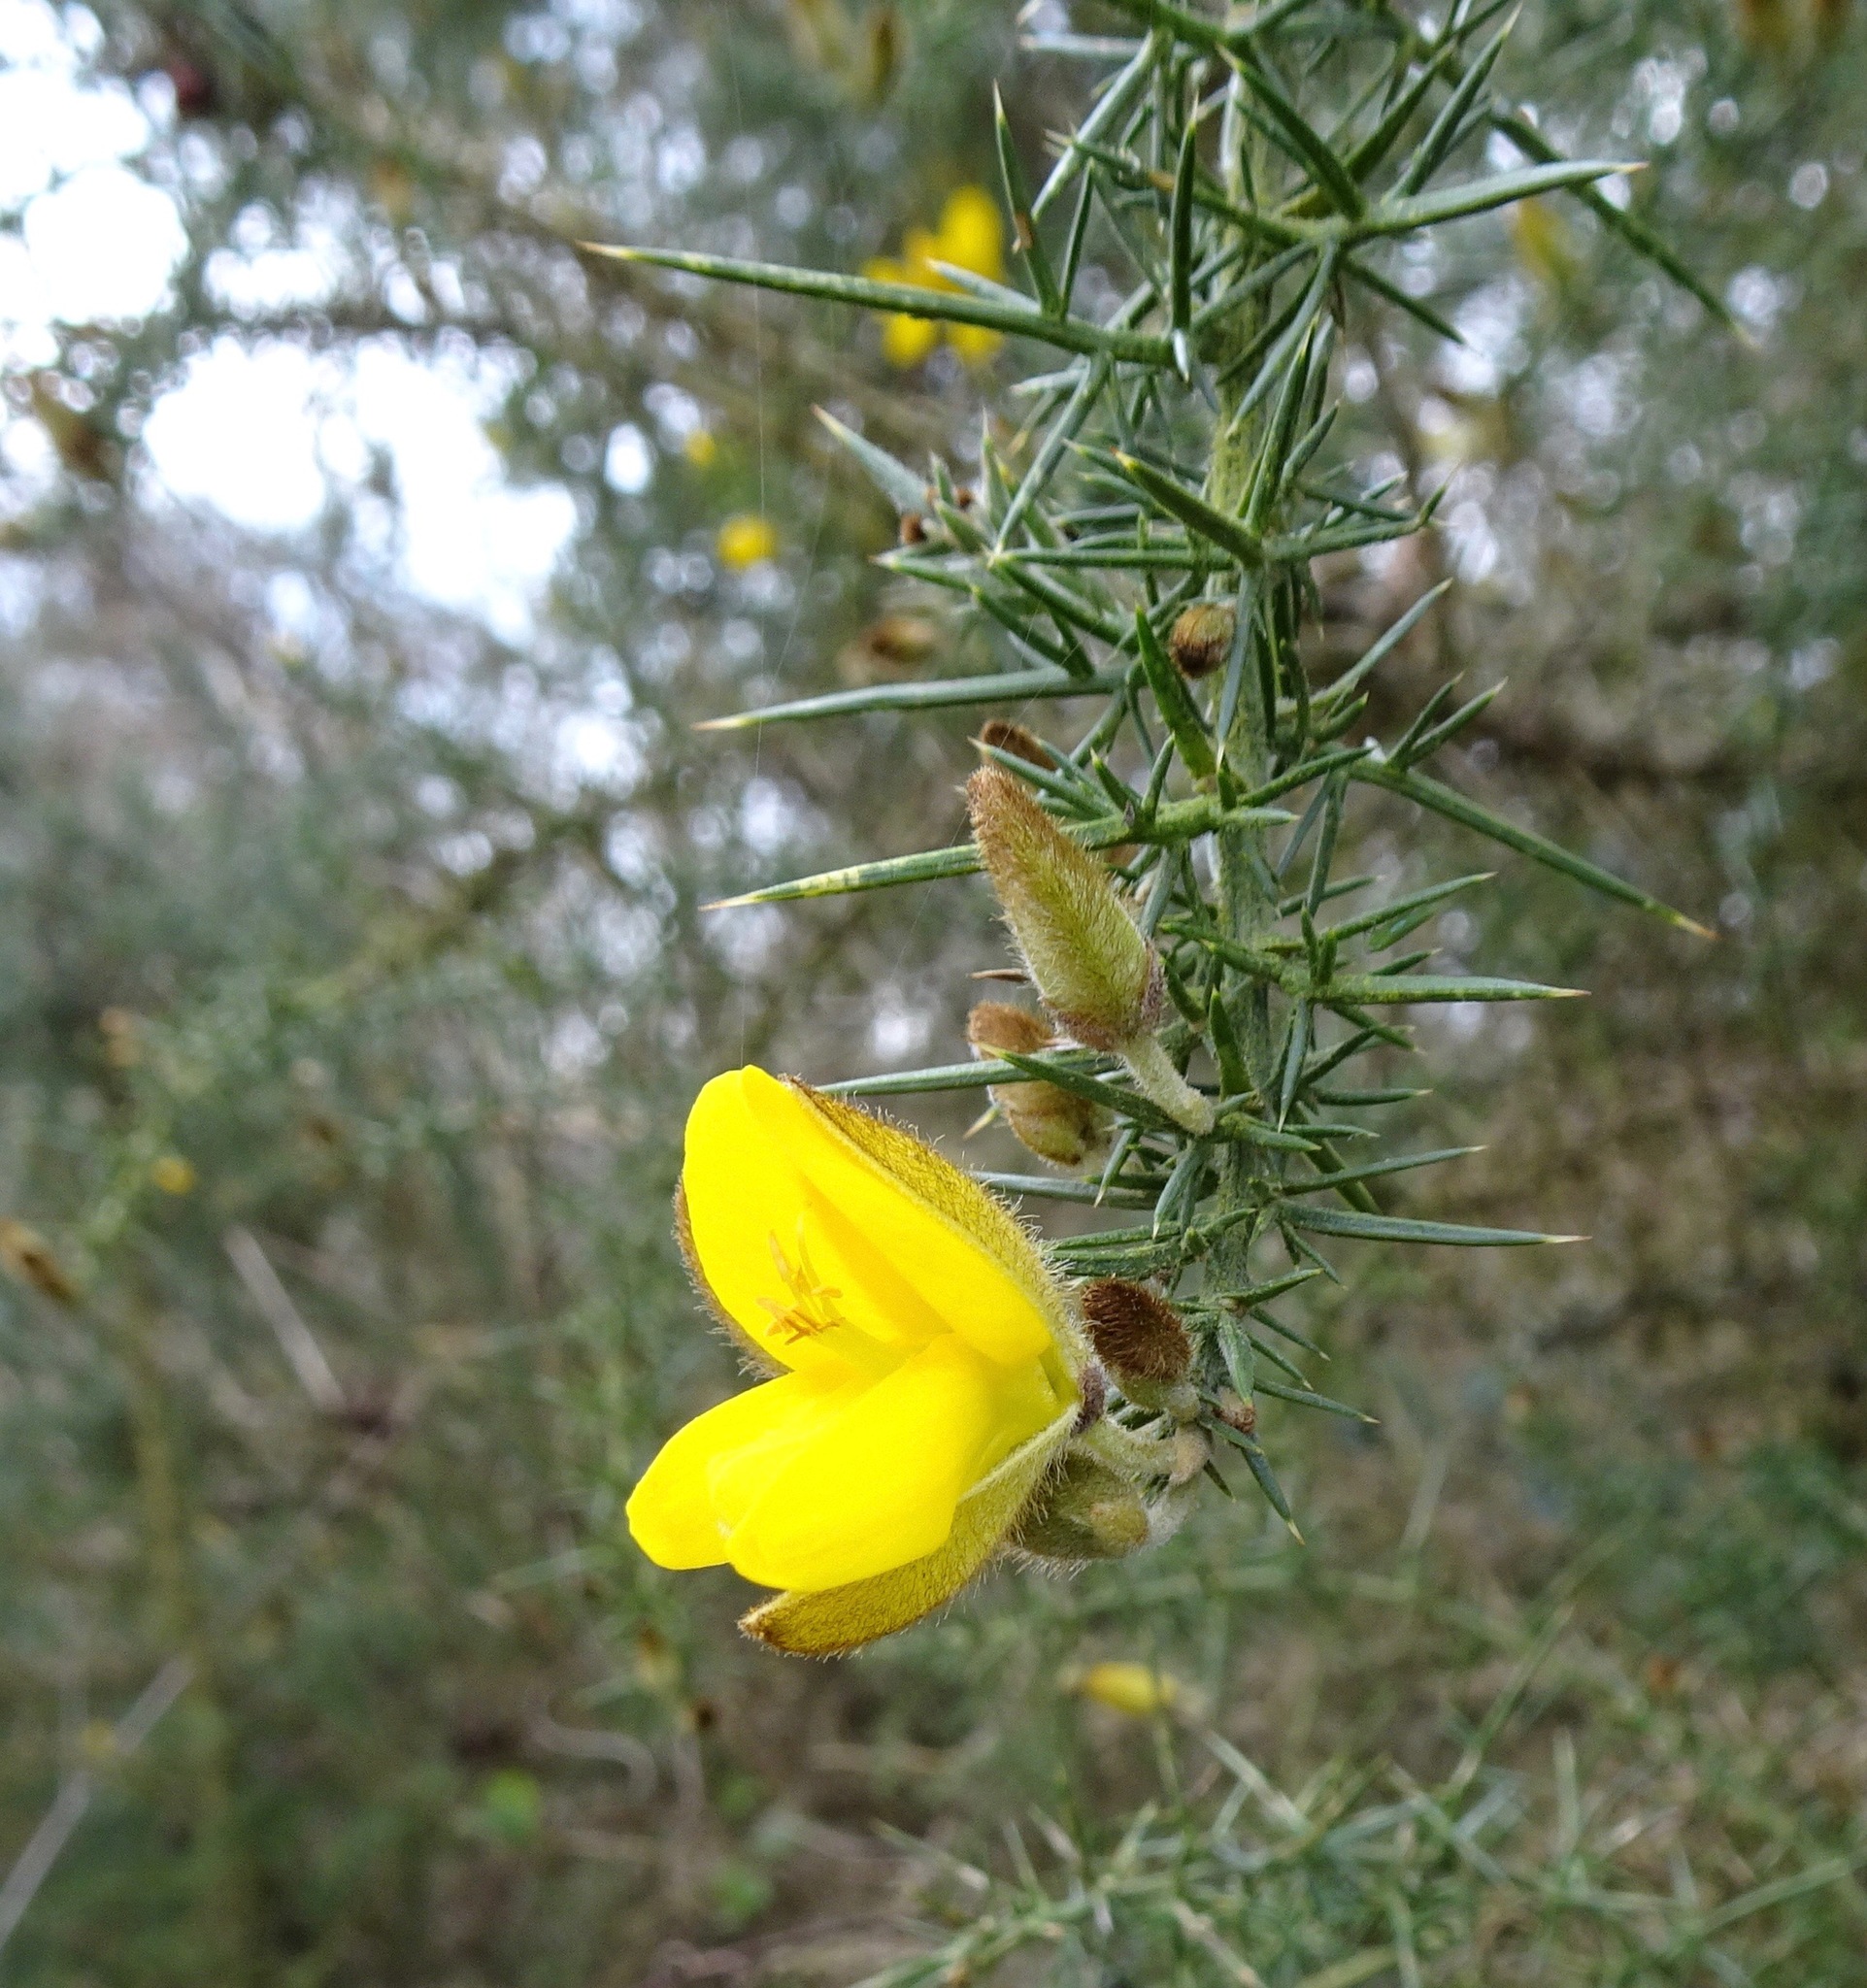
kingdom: Plantae
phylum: Tracheophyta
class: Magnoliopsida
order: Fabales
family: Fabaceae
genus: Ulex
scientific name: Ulex europaeus
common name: Common gorse
